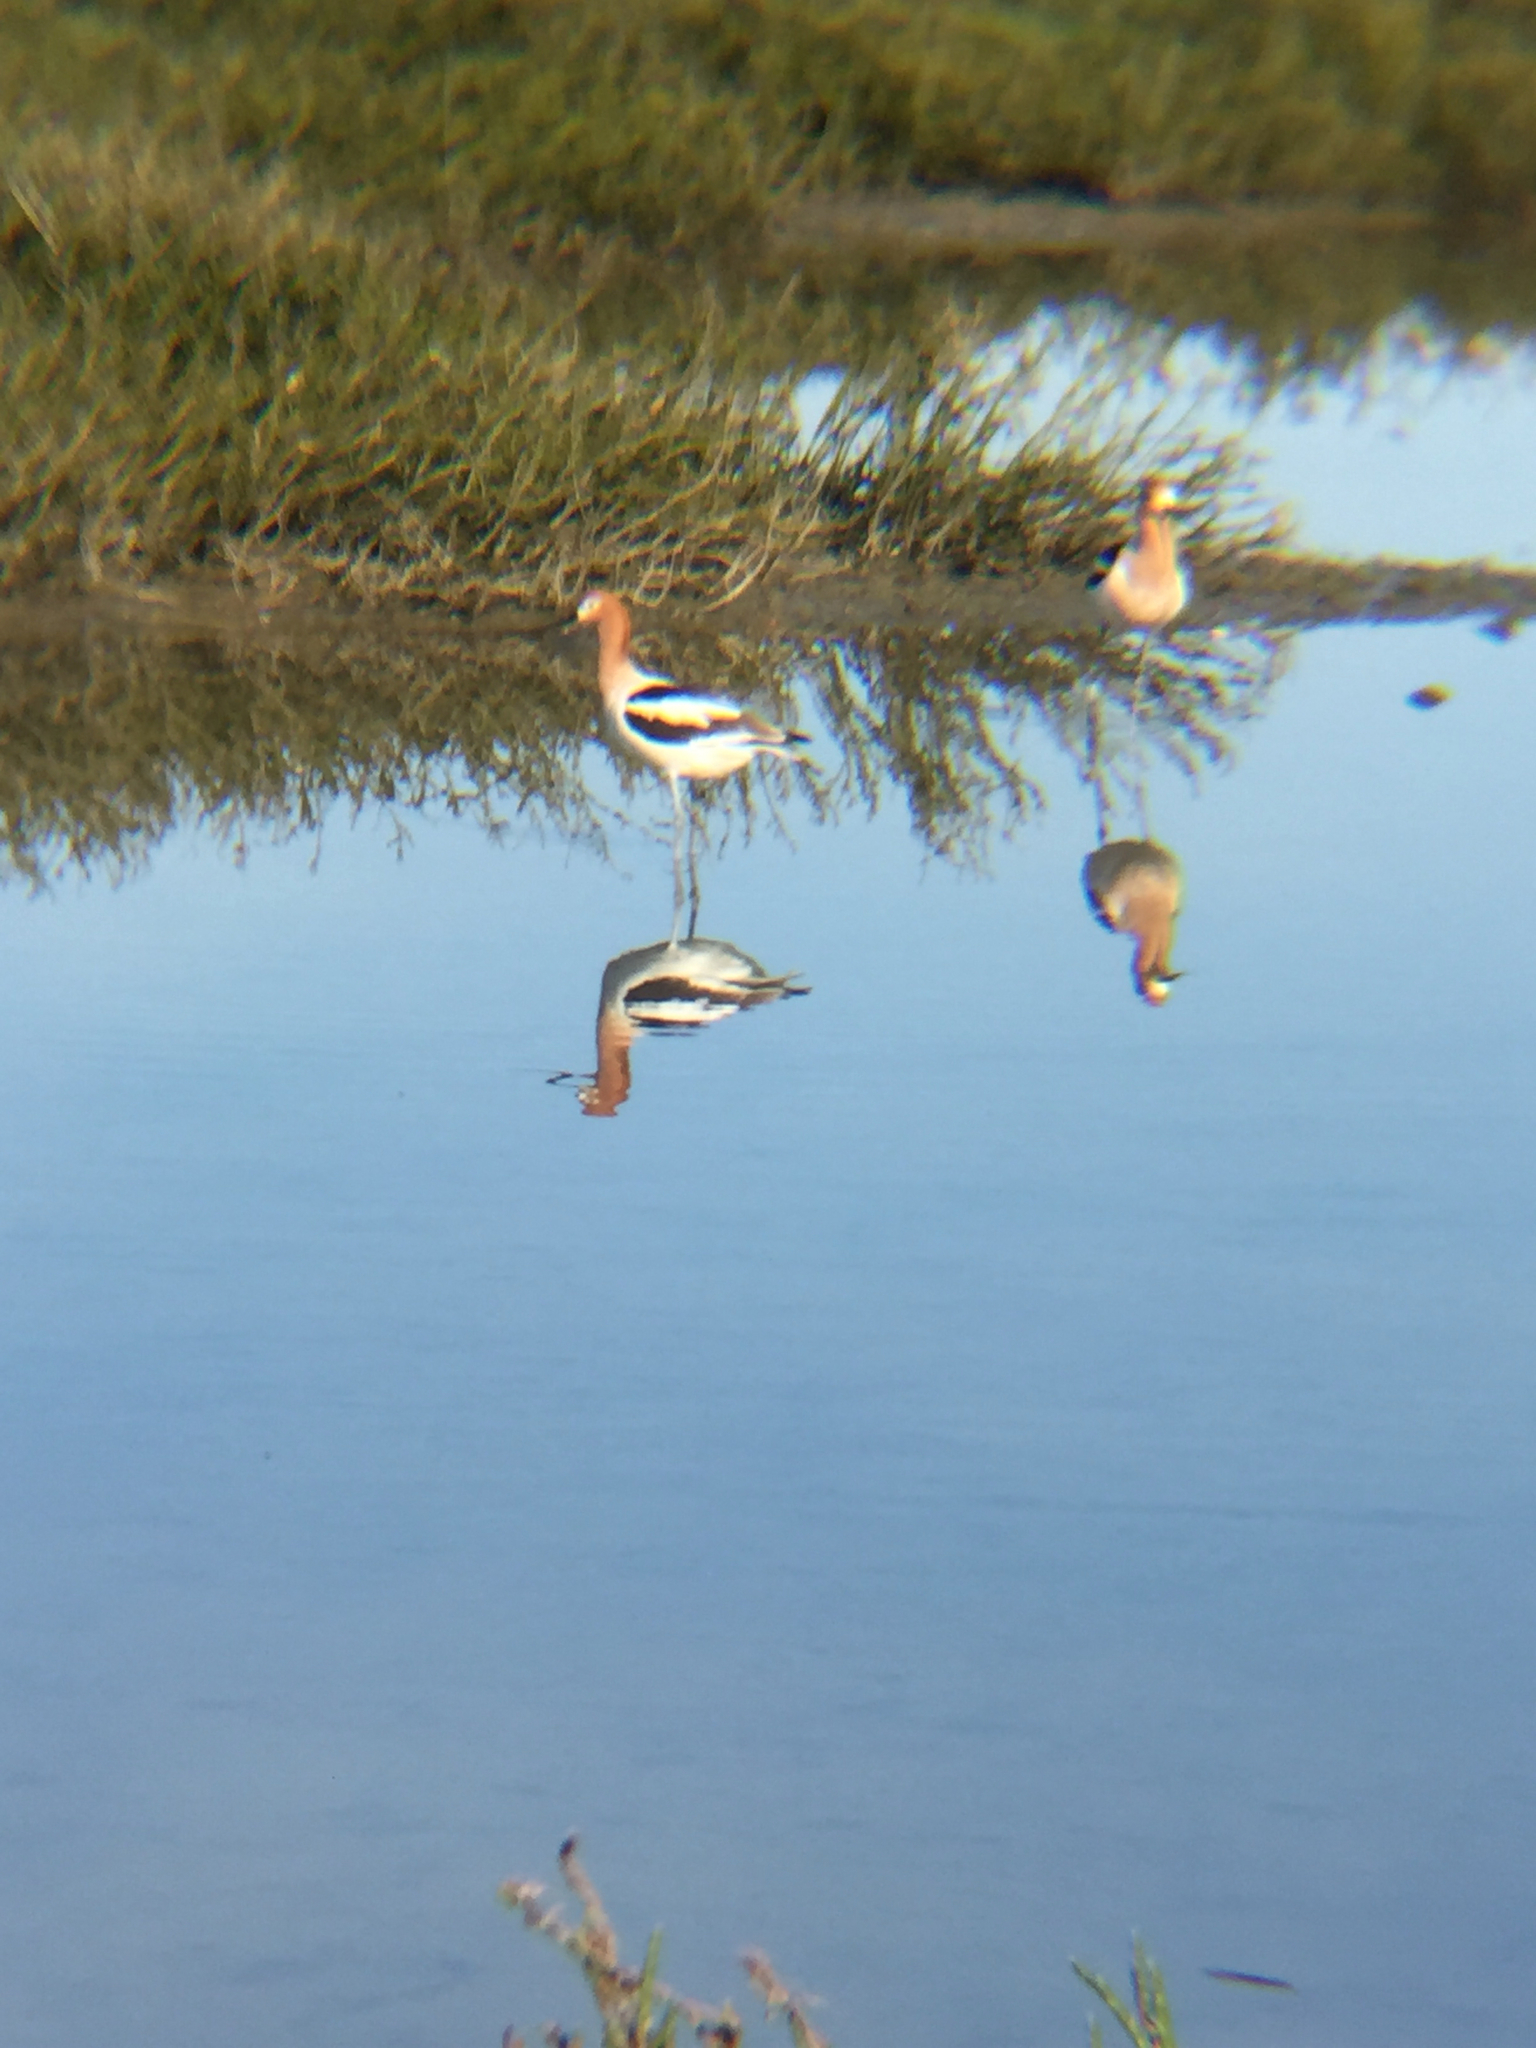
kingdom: Animalia
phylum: Chordata
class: Aves
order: Charadriiformes
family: Recurvirostridae
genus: Recurvirostra
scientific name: Recurvirostra americana
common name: American avocet
